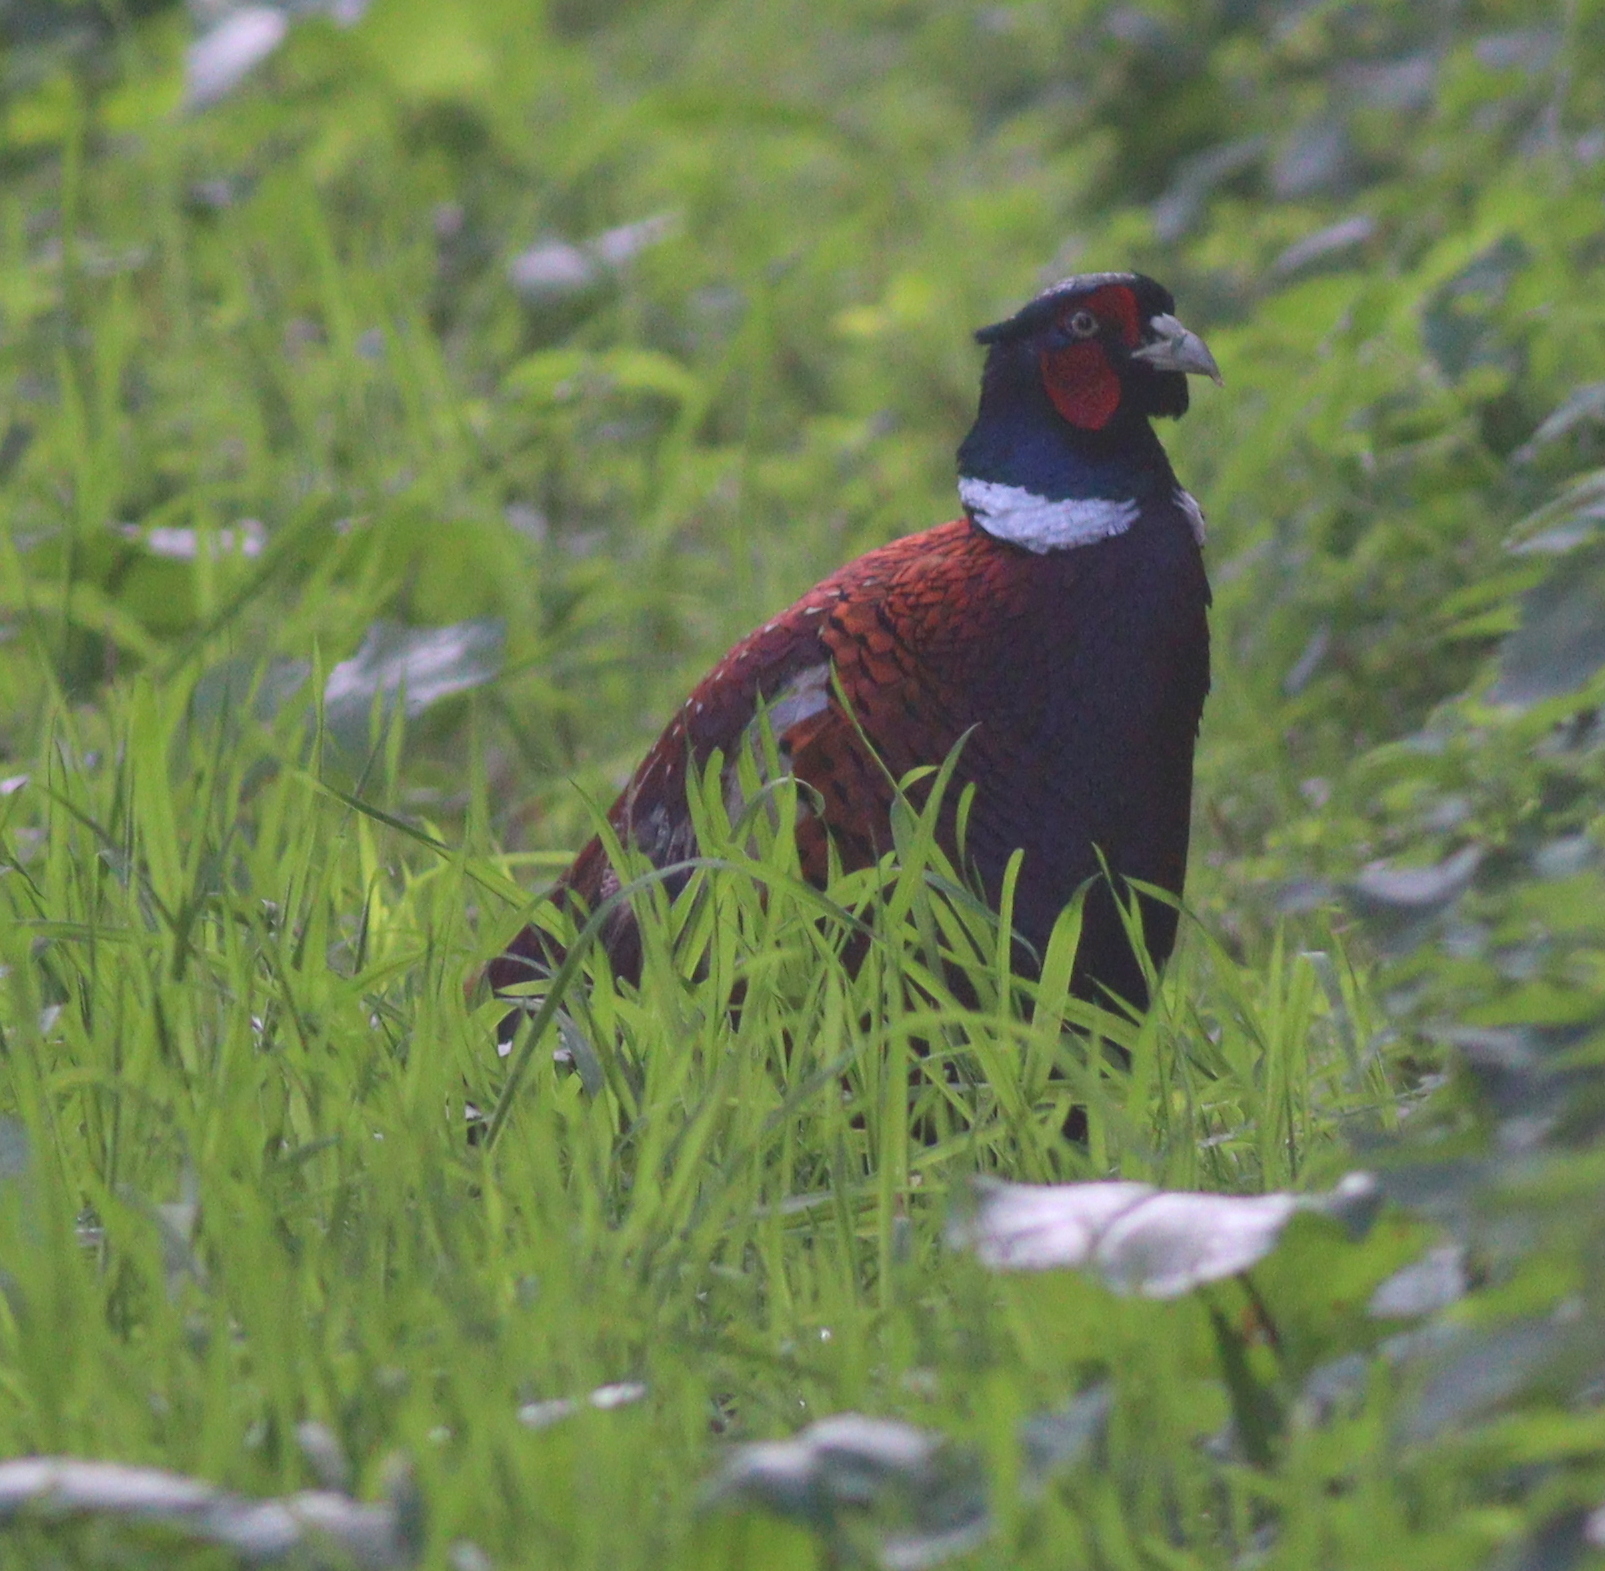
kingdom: Animalia
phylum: Chordata
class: Aves
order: Galliformes
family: Phasianidae
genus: Phasianus
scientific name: Phasianus colchicus
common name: Common pheasant
